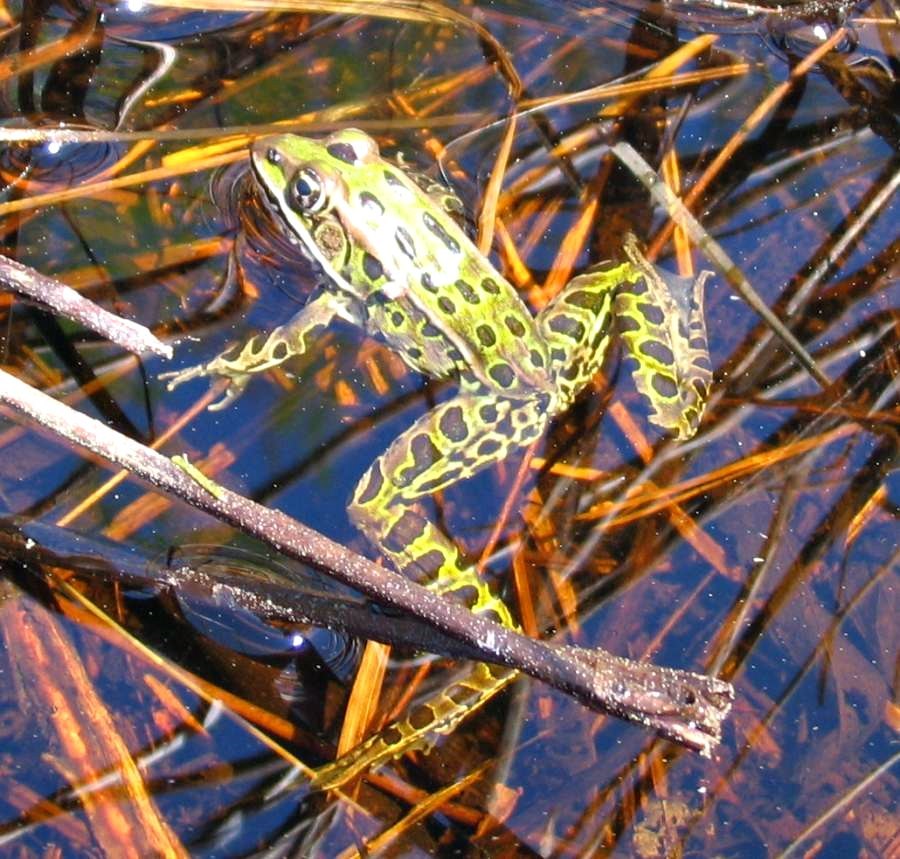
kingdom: Animalia
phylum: Chordata
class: Amphibia
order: Anura
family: Ranidae
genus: Lithobates
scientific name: Lithobates pipiens
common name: Northern leopard frog
